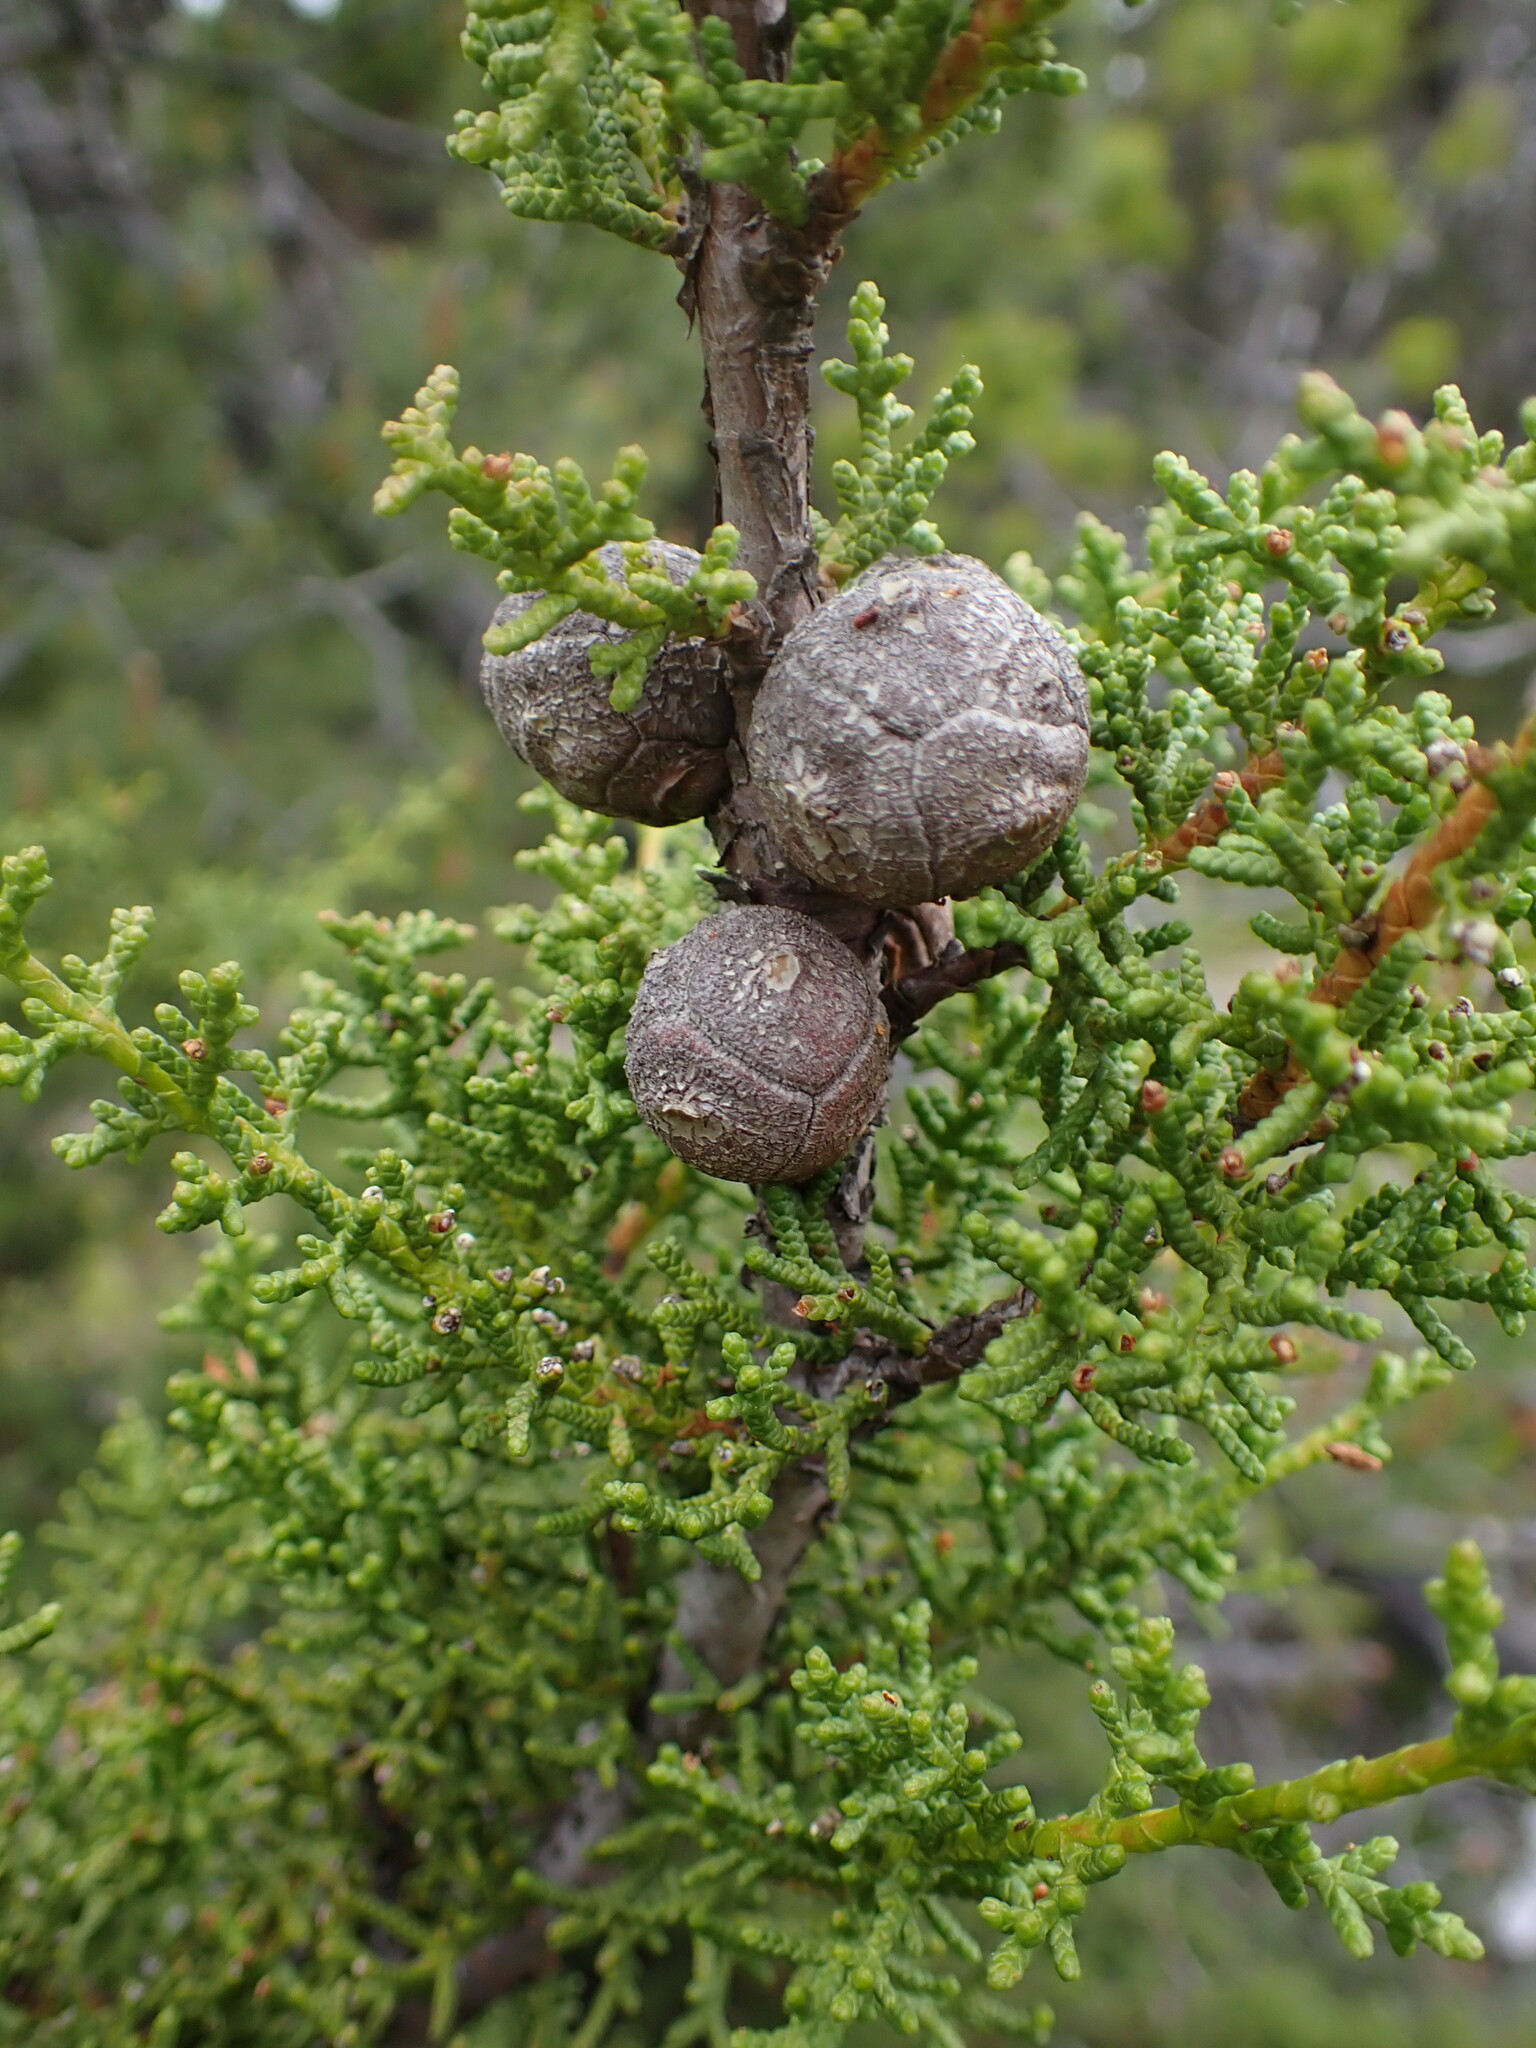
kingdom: Plantae
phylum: Tracheophyta
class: Pinopsida
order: Pinales
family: Cupressaceae
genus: Cupressus
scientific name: Cupressus goveniana
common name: Gowen cypress
